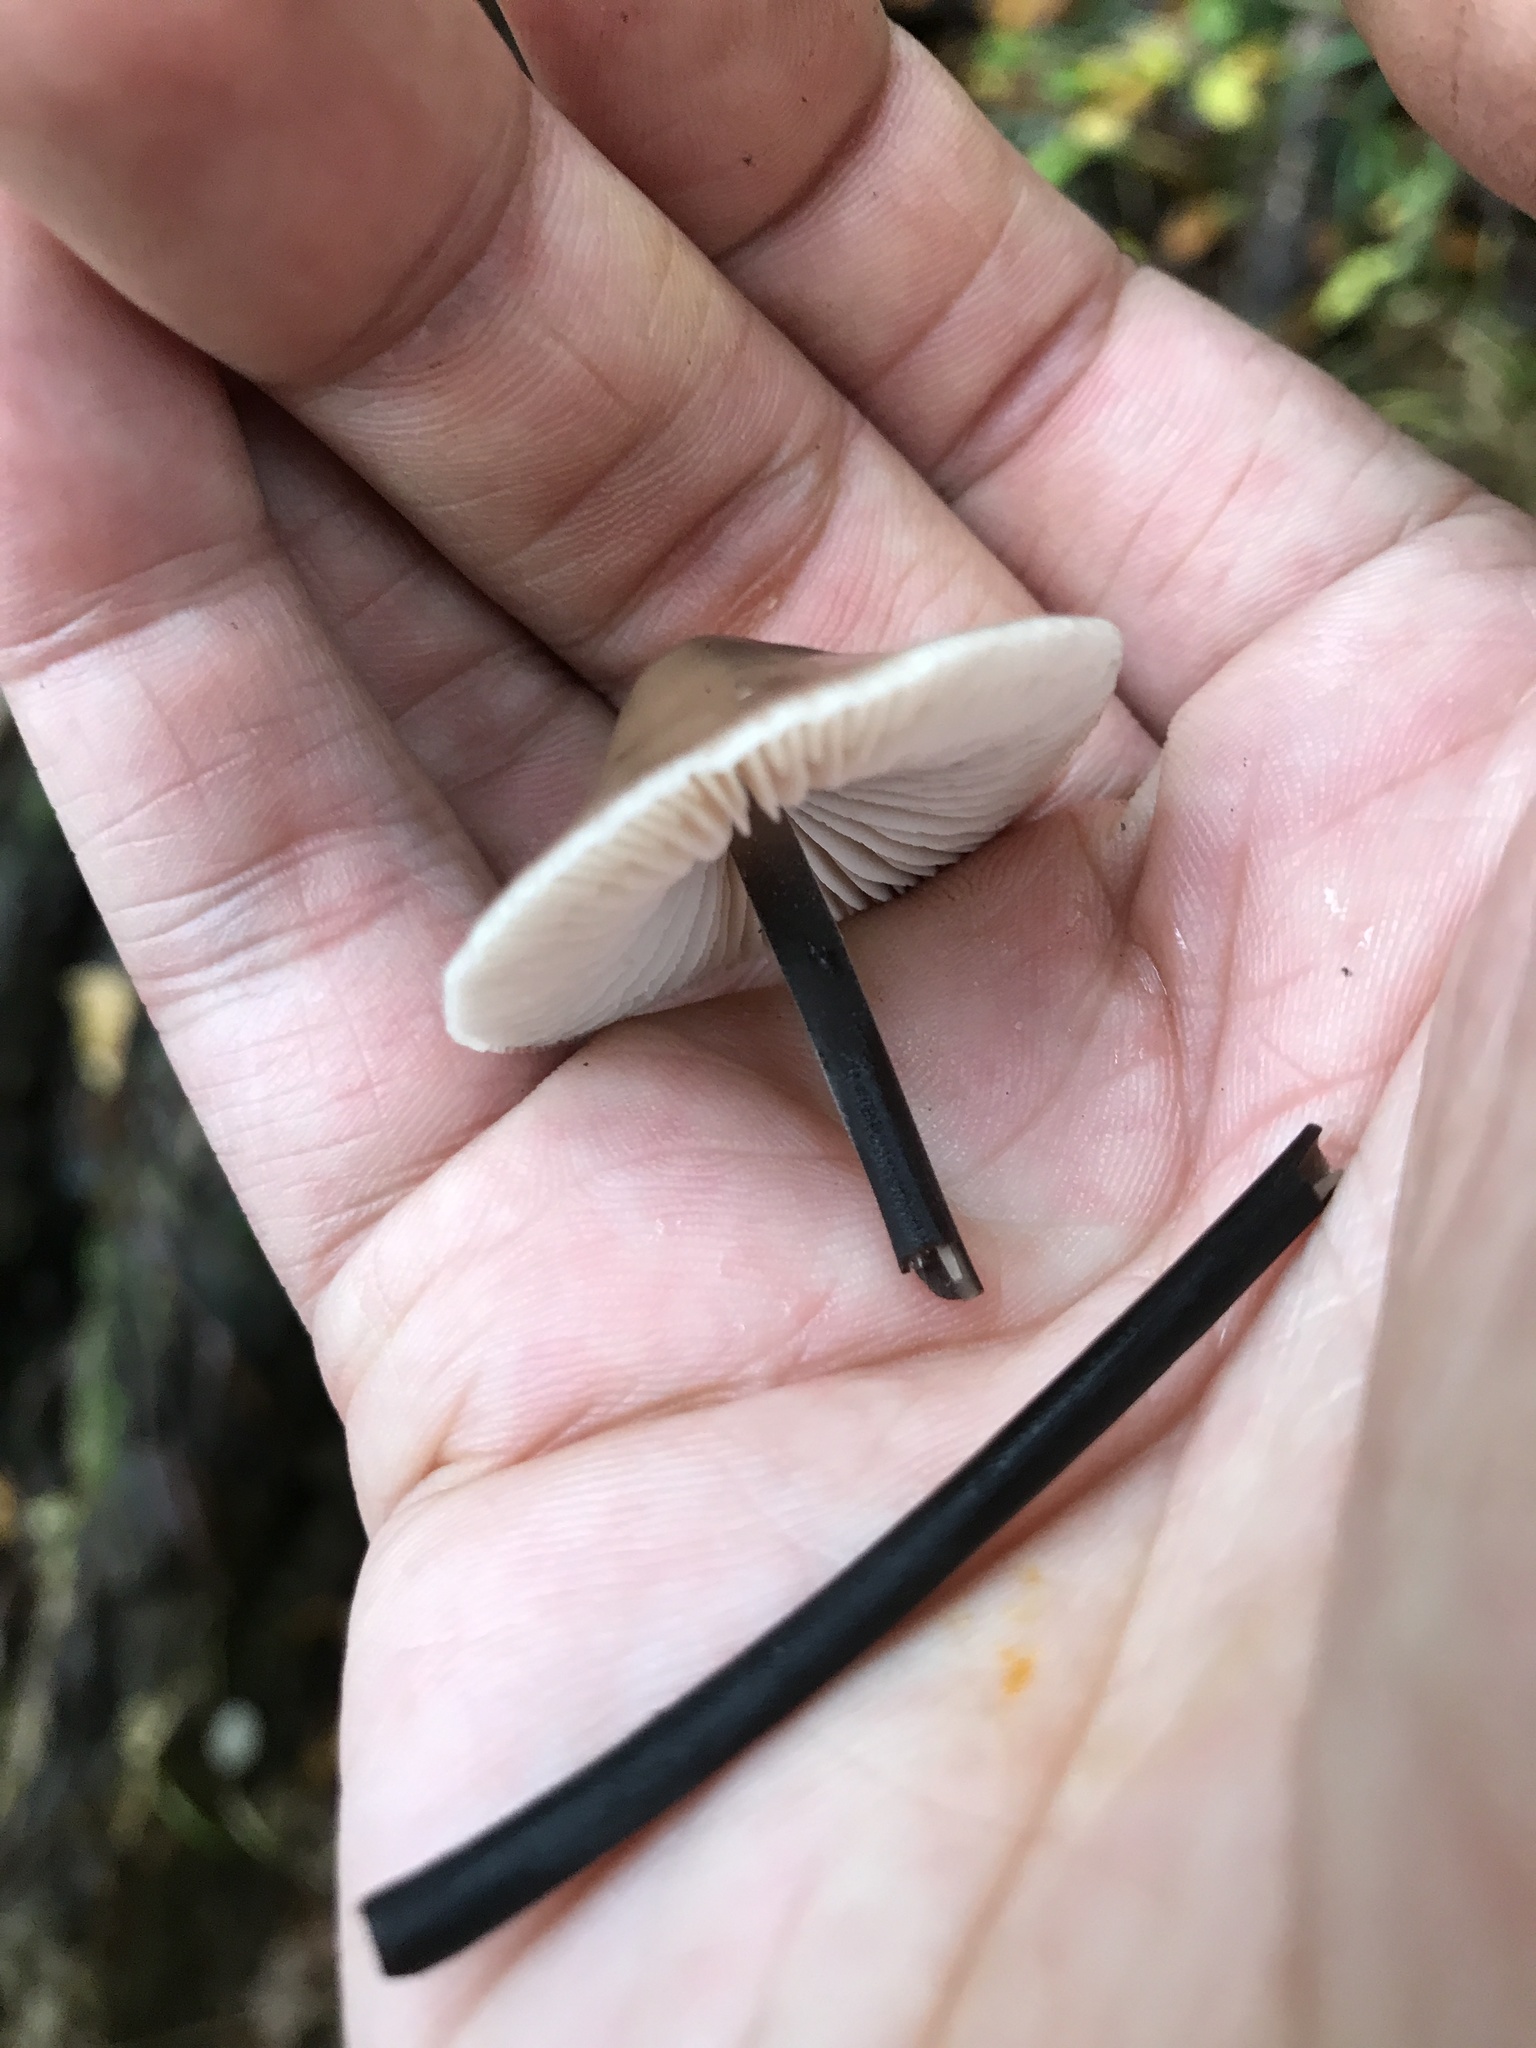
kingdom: Fungi
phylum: Basidiomycota
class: Agaricomycetes
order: Agaricales
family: Omphalotaceae
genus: Mycetinis
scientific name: Mycetinis alliaceus
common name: Garlic parachute
